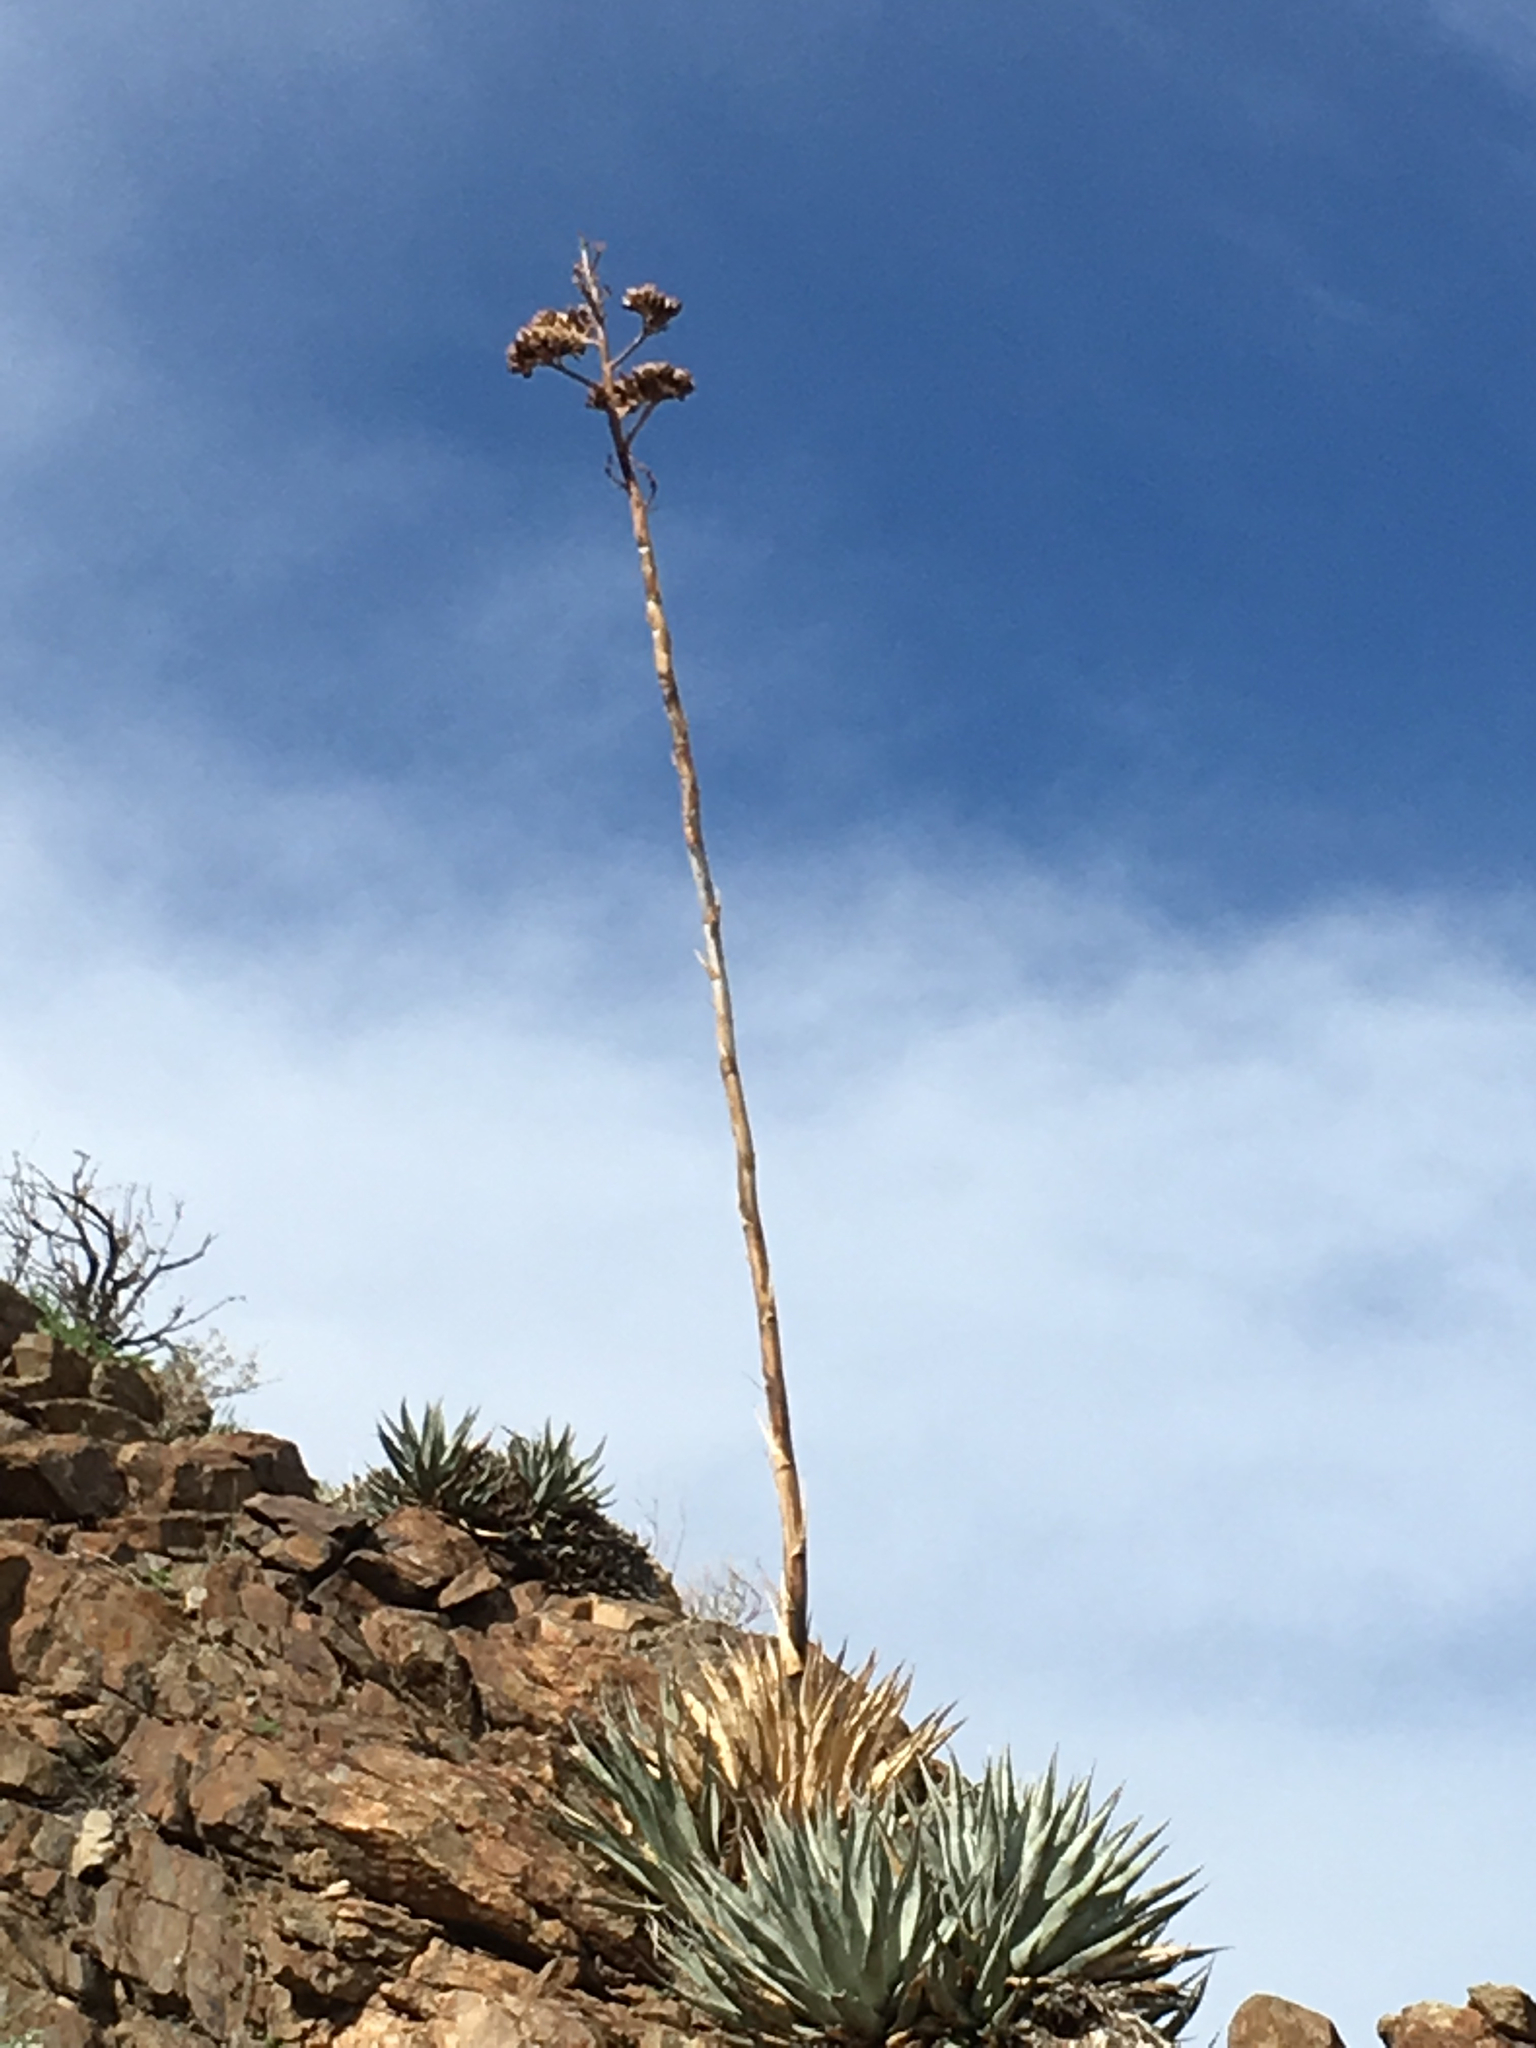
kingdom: Plantae
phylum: Tracheophyta
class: Liliopsida
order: Asparagales
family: Asparagaceae
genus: Agave
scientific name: Agave deserti
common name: Desert agave
